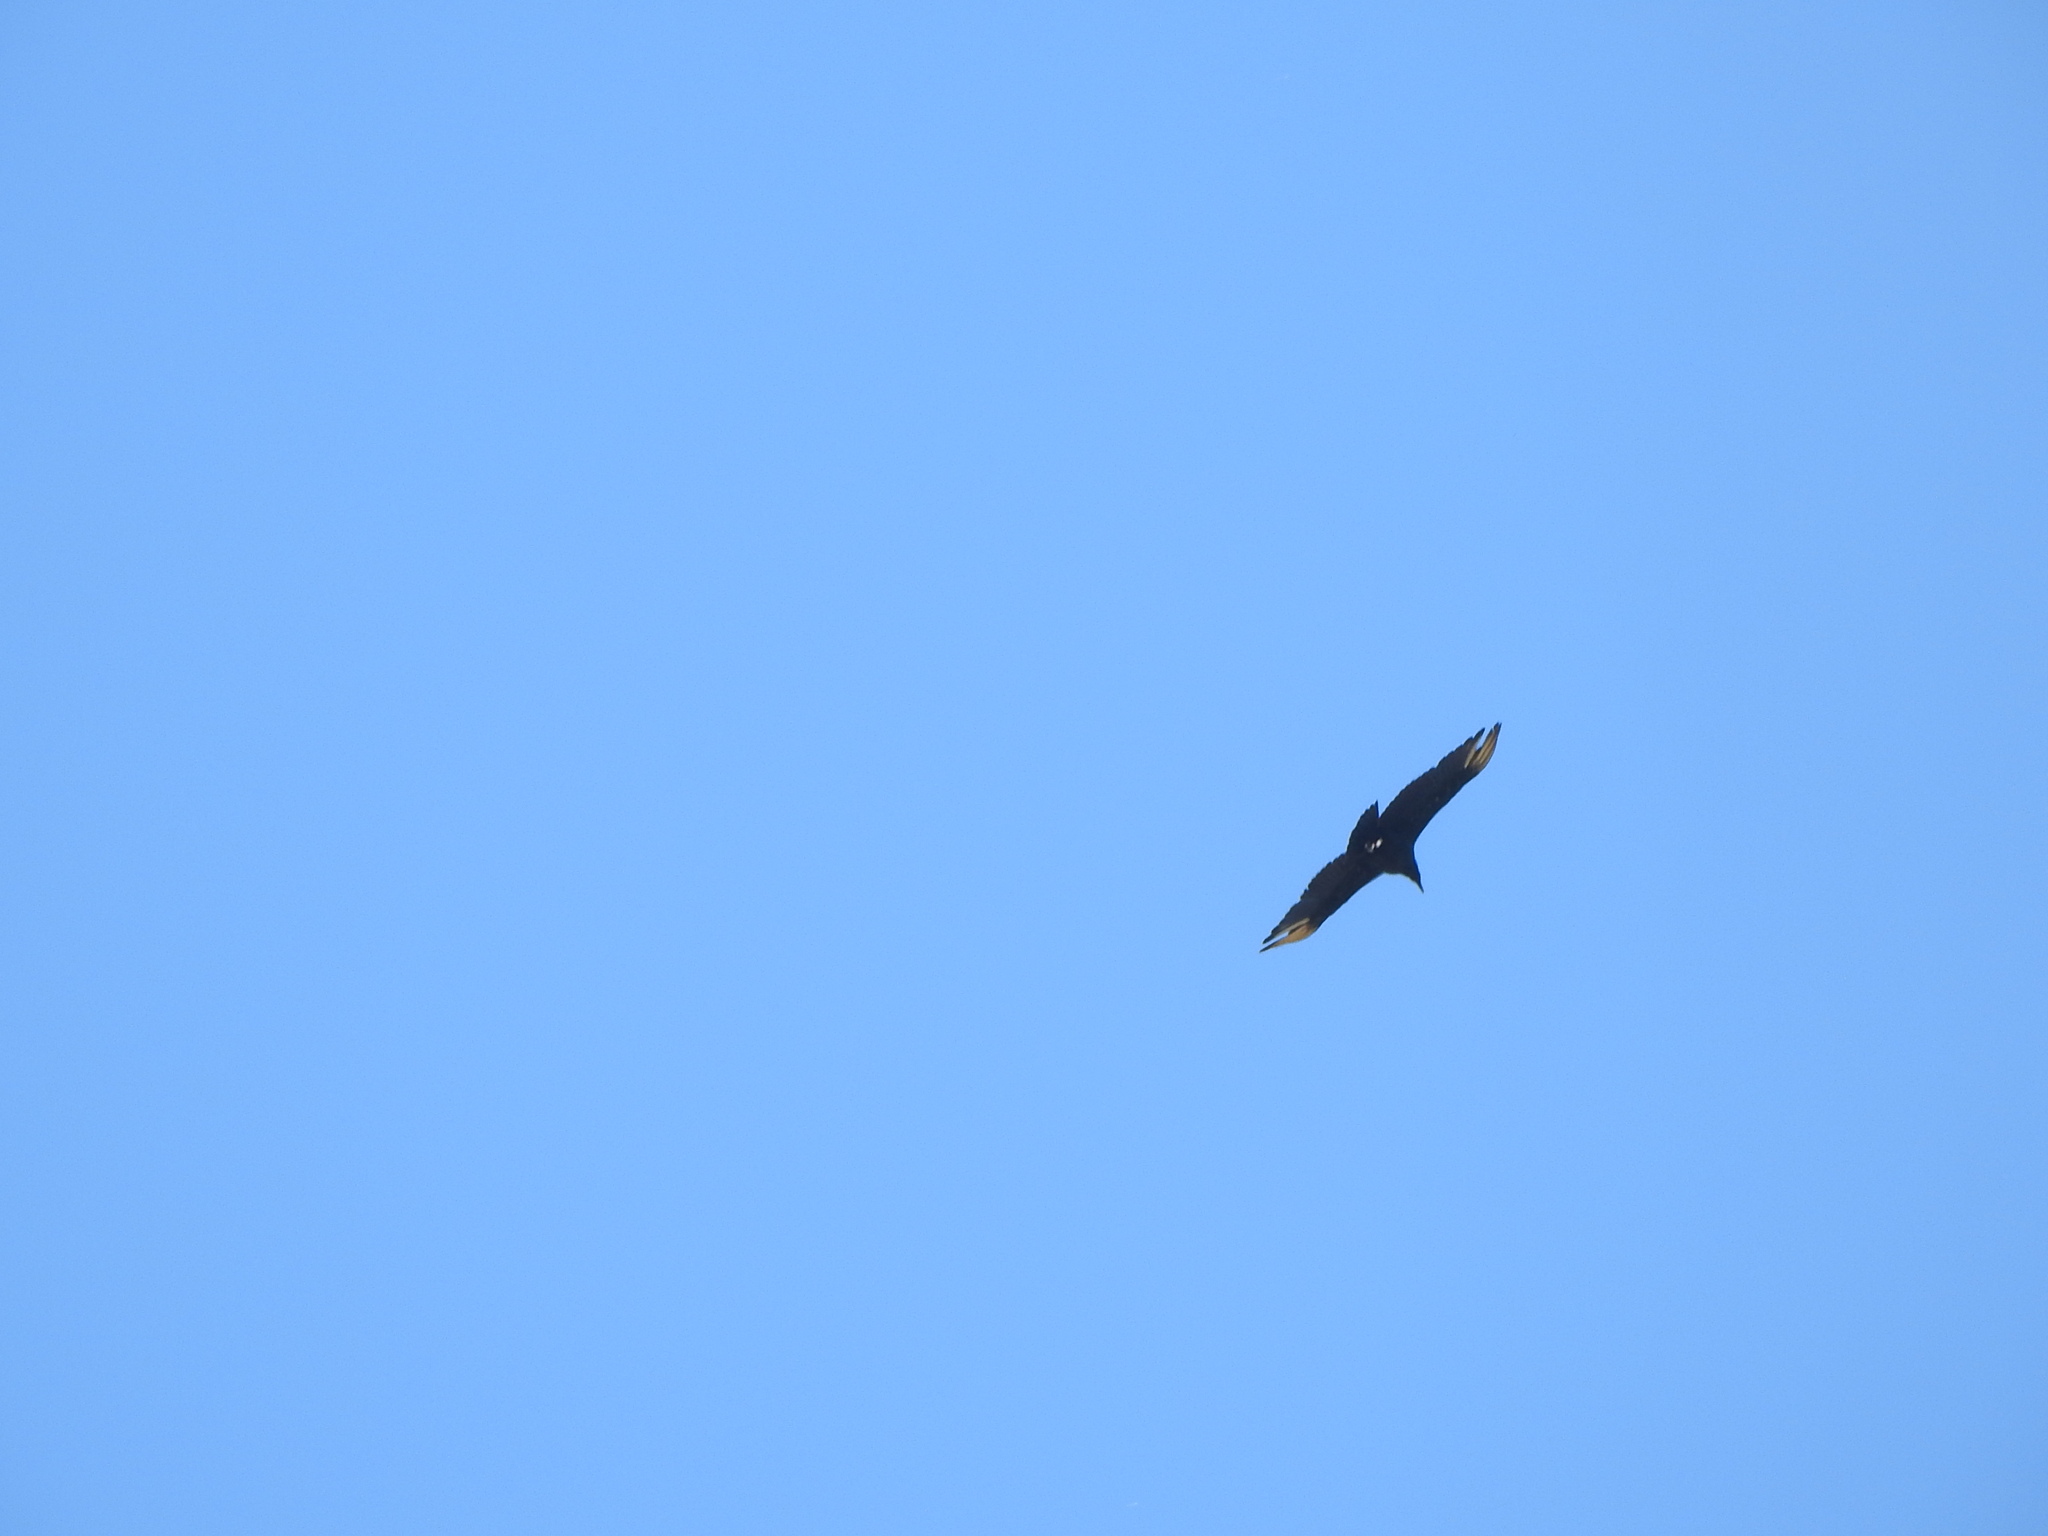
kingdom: Animalia
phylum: Chordata
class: Aves
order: Accipitriformes
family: Cathartidae
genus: Coragyps
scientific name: Coragyps atratus
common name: Black vulture
